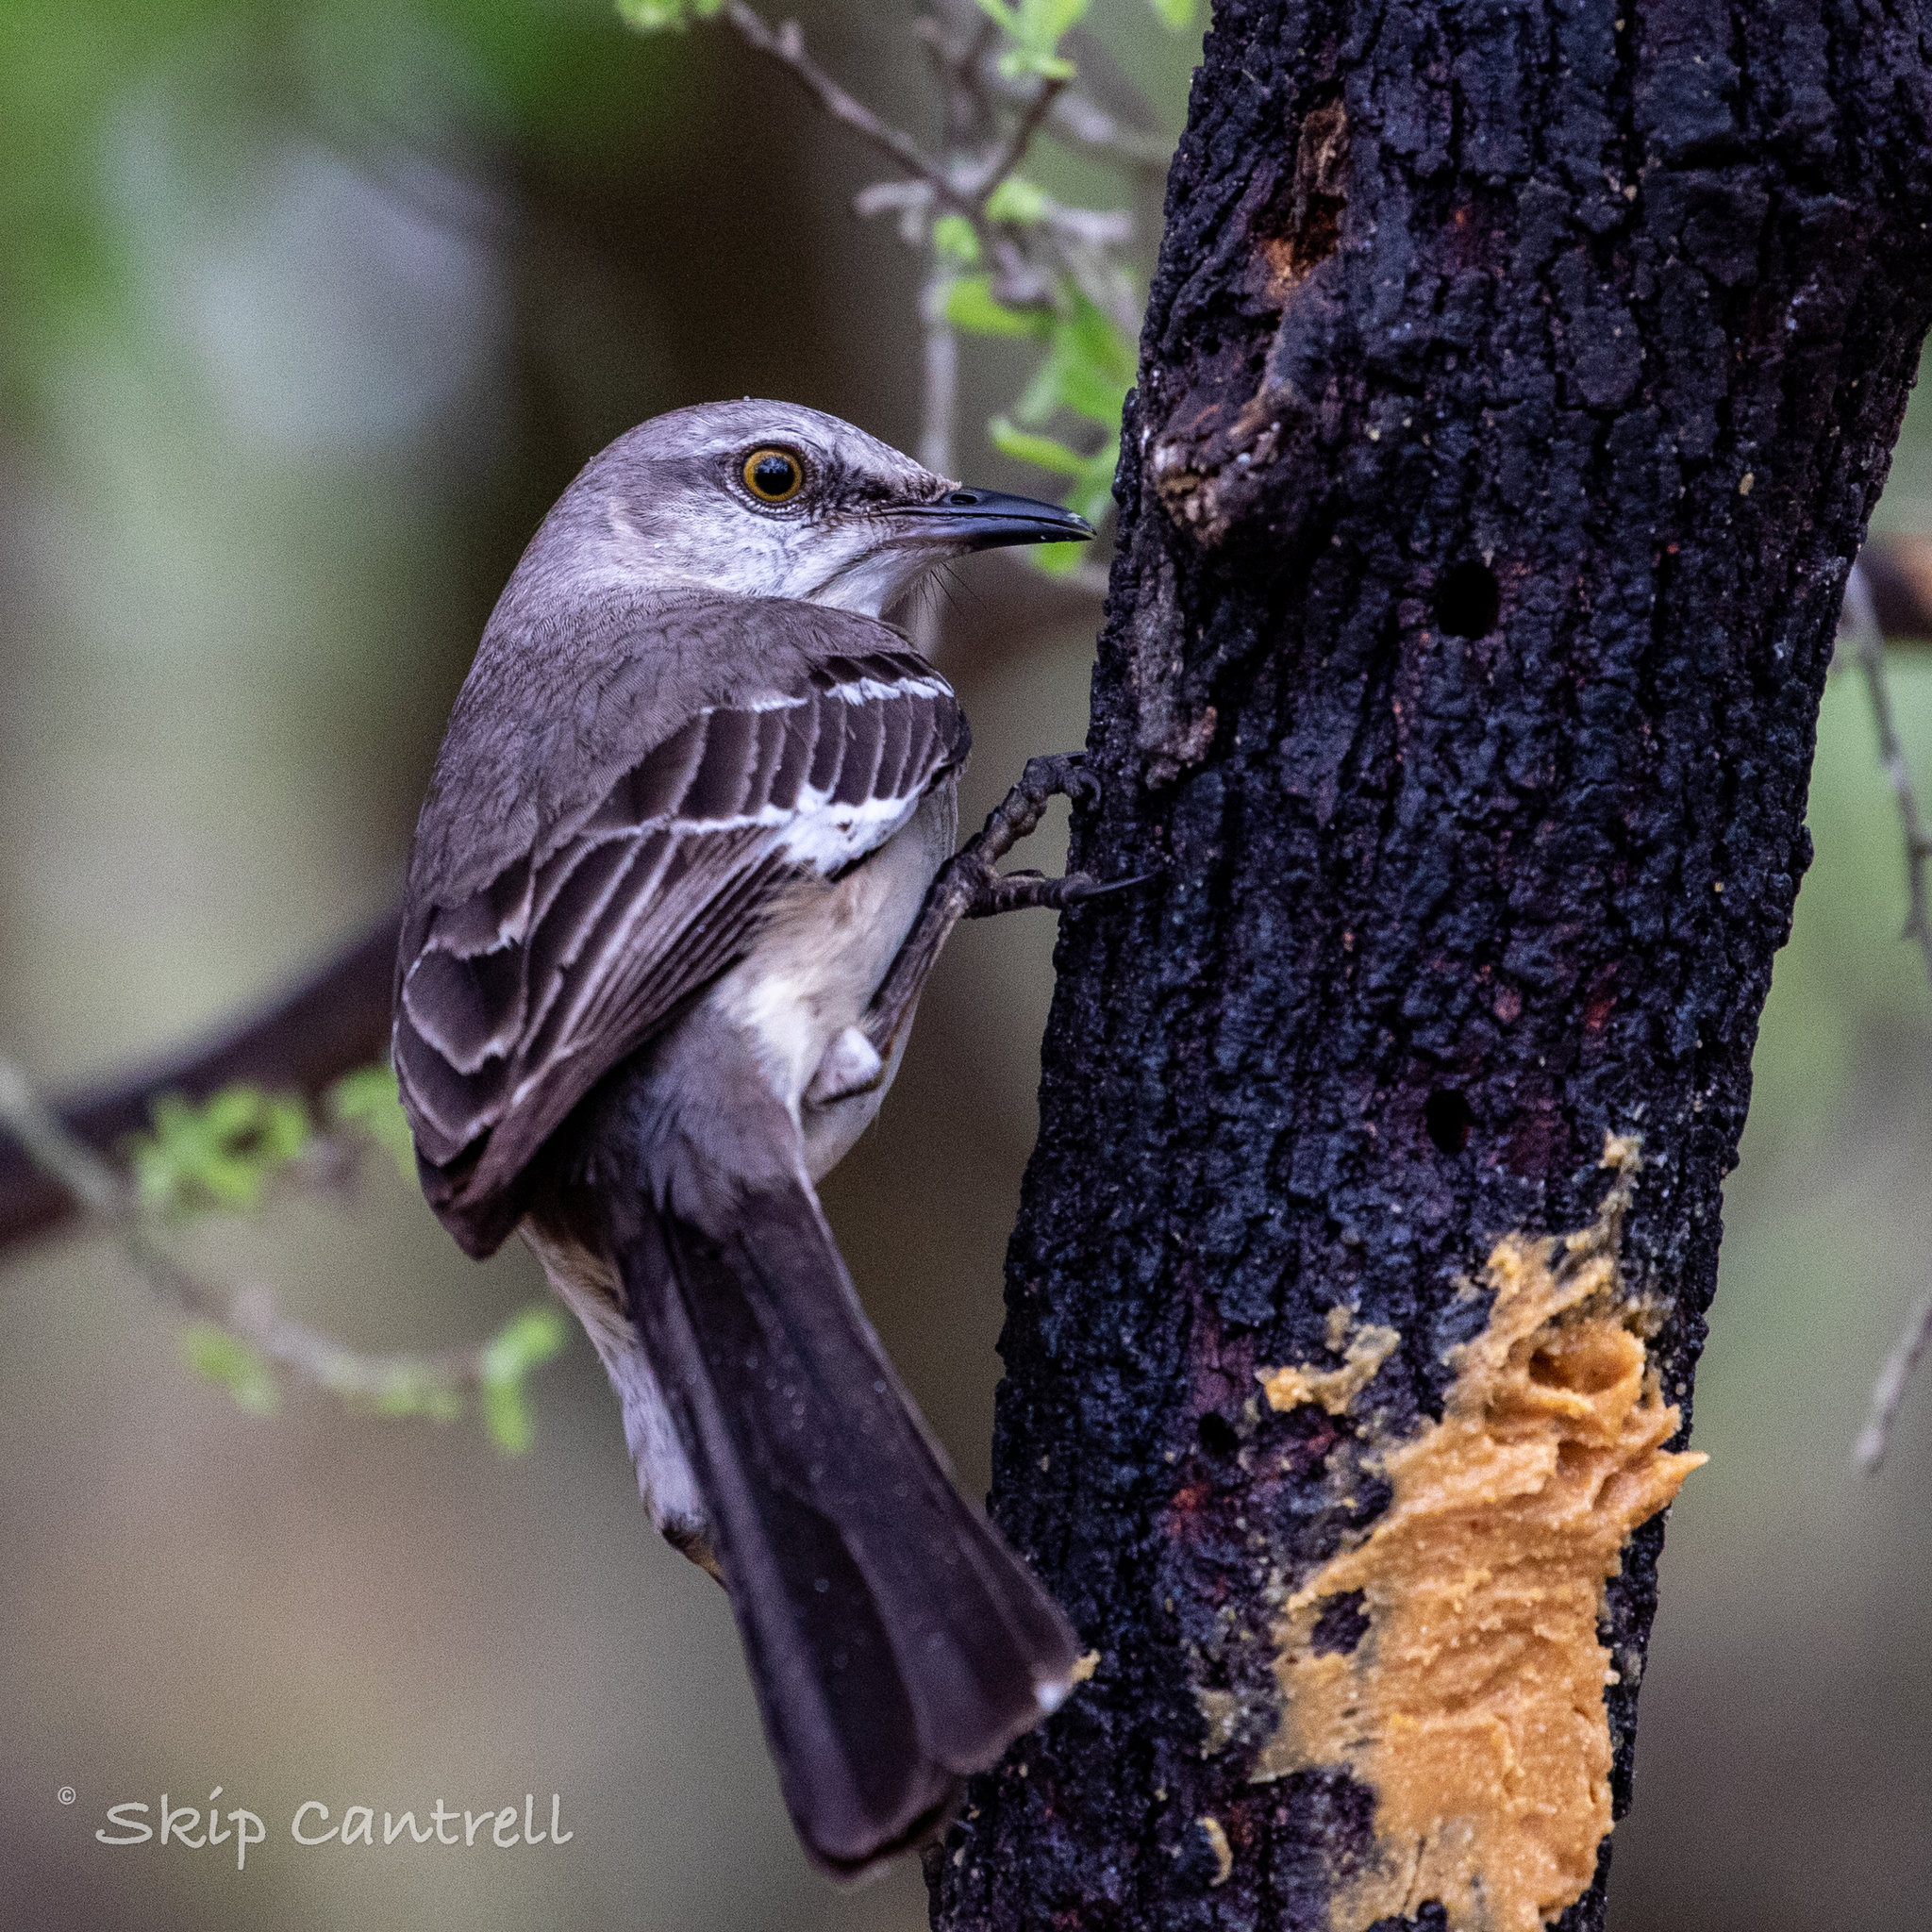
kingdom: Animalia
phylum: Chordata
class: Aves
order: Passeriformes
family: Mimidae
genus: Mimus
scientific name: Mimus polyglottos
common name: Northern mockingbird
